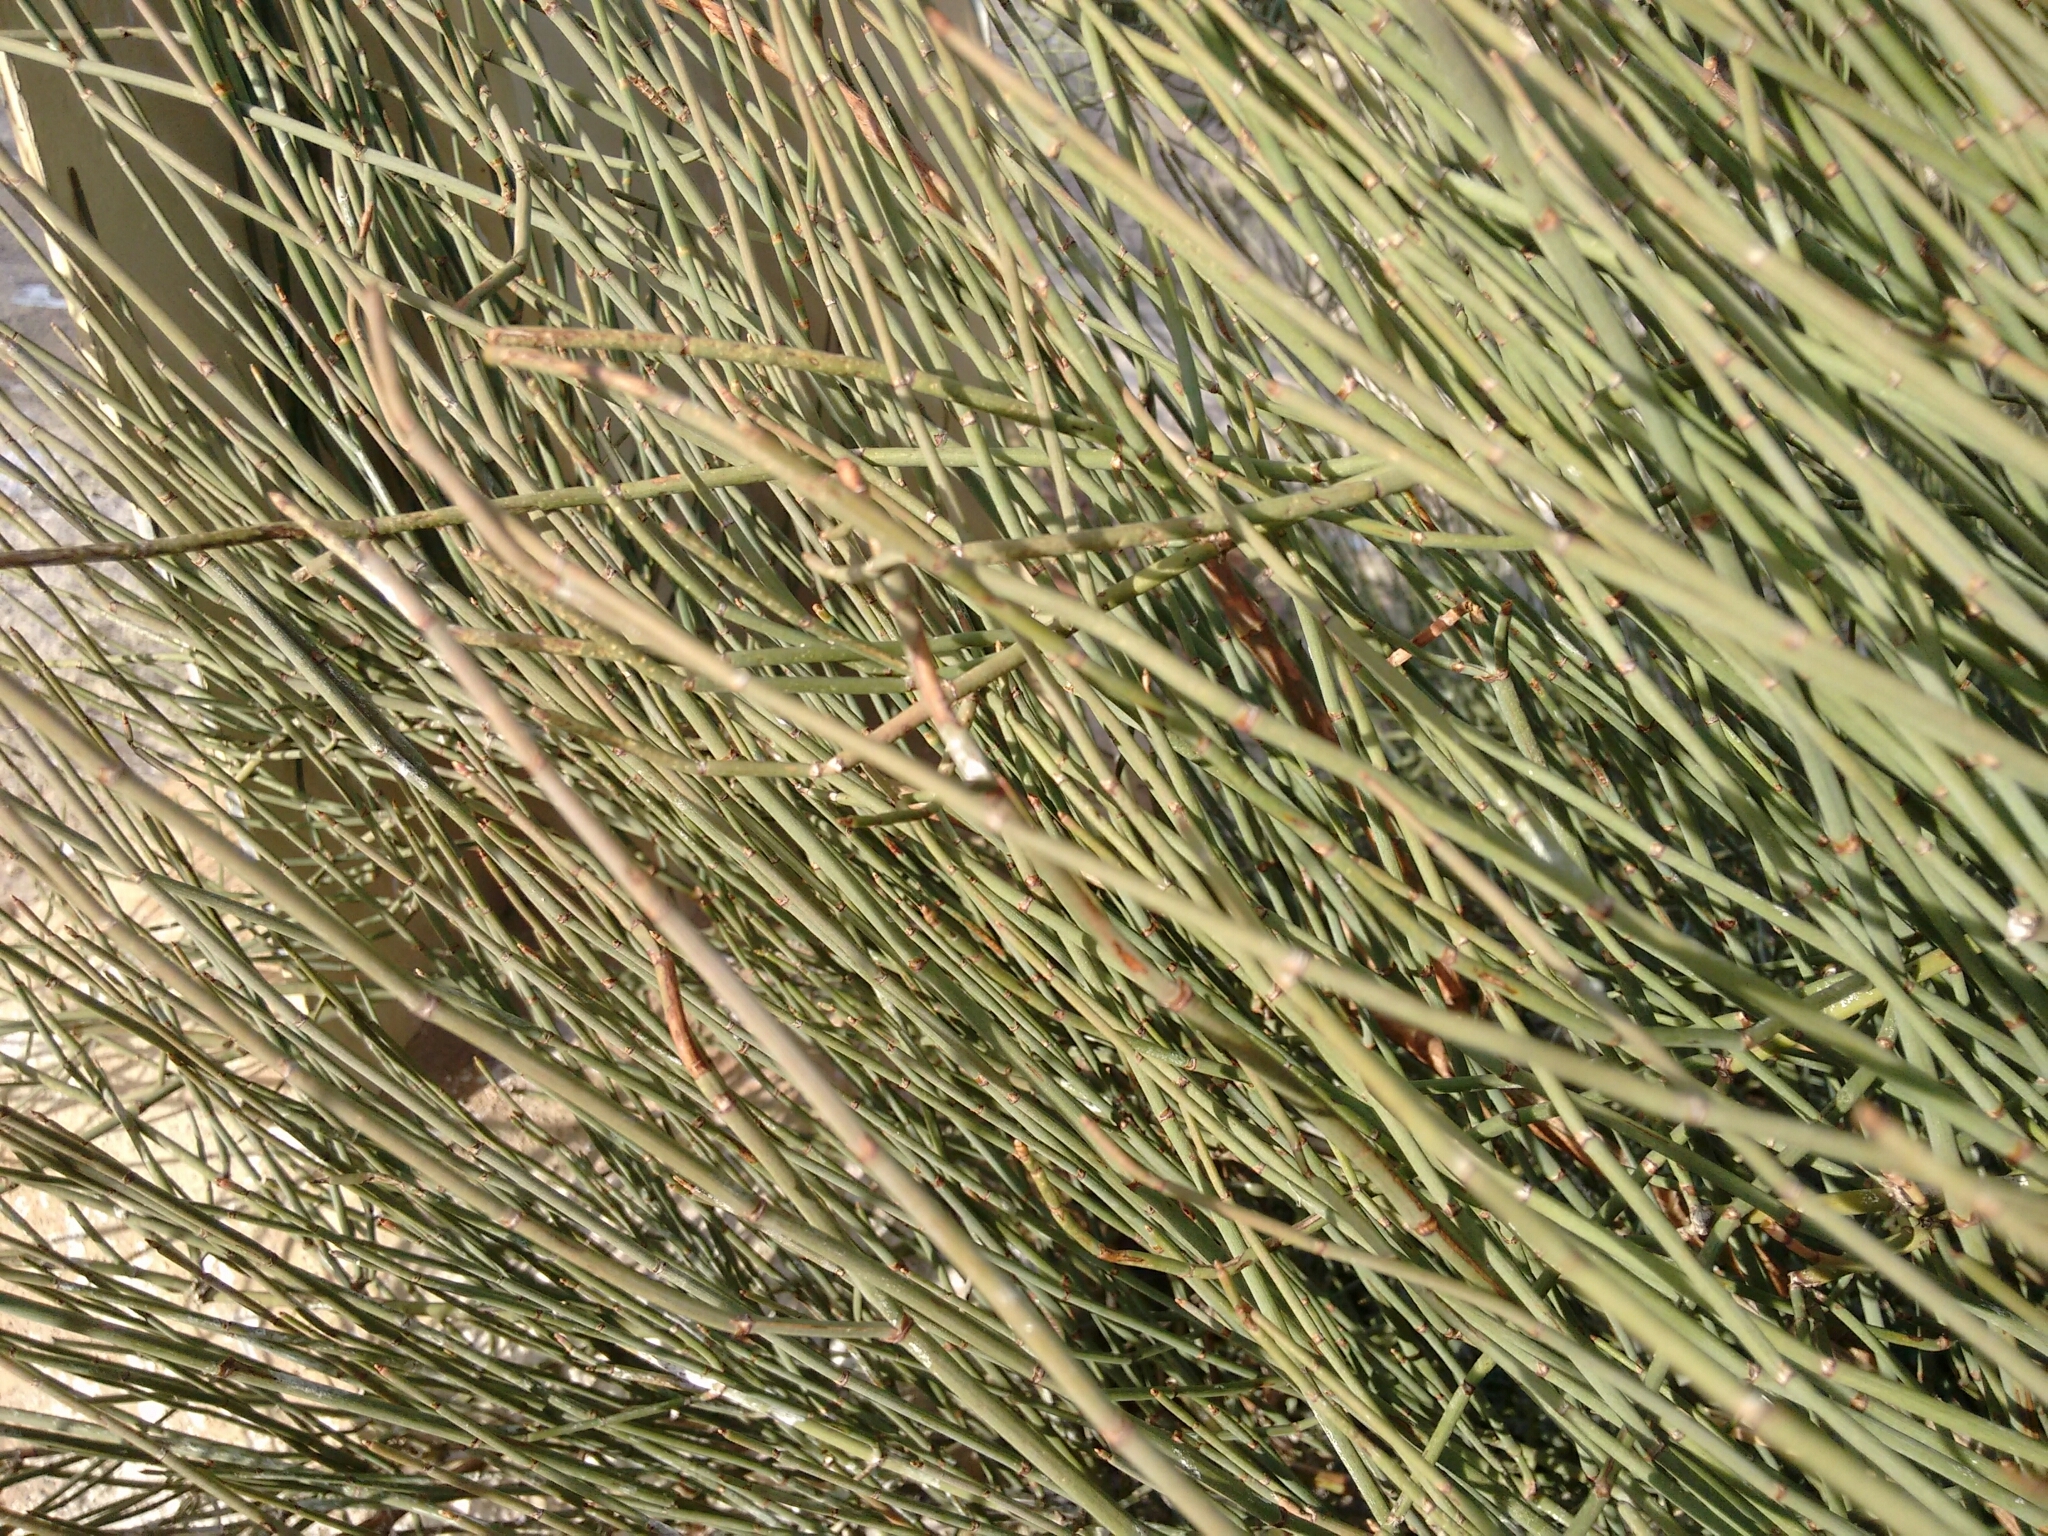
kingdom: Plantae
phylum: Tracheophyta
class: Gnetopsida
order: Ephedrales
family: Ephedraceae
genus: Ephedra
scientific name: Ephedra fragilis
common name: Joint pine
